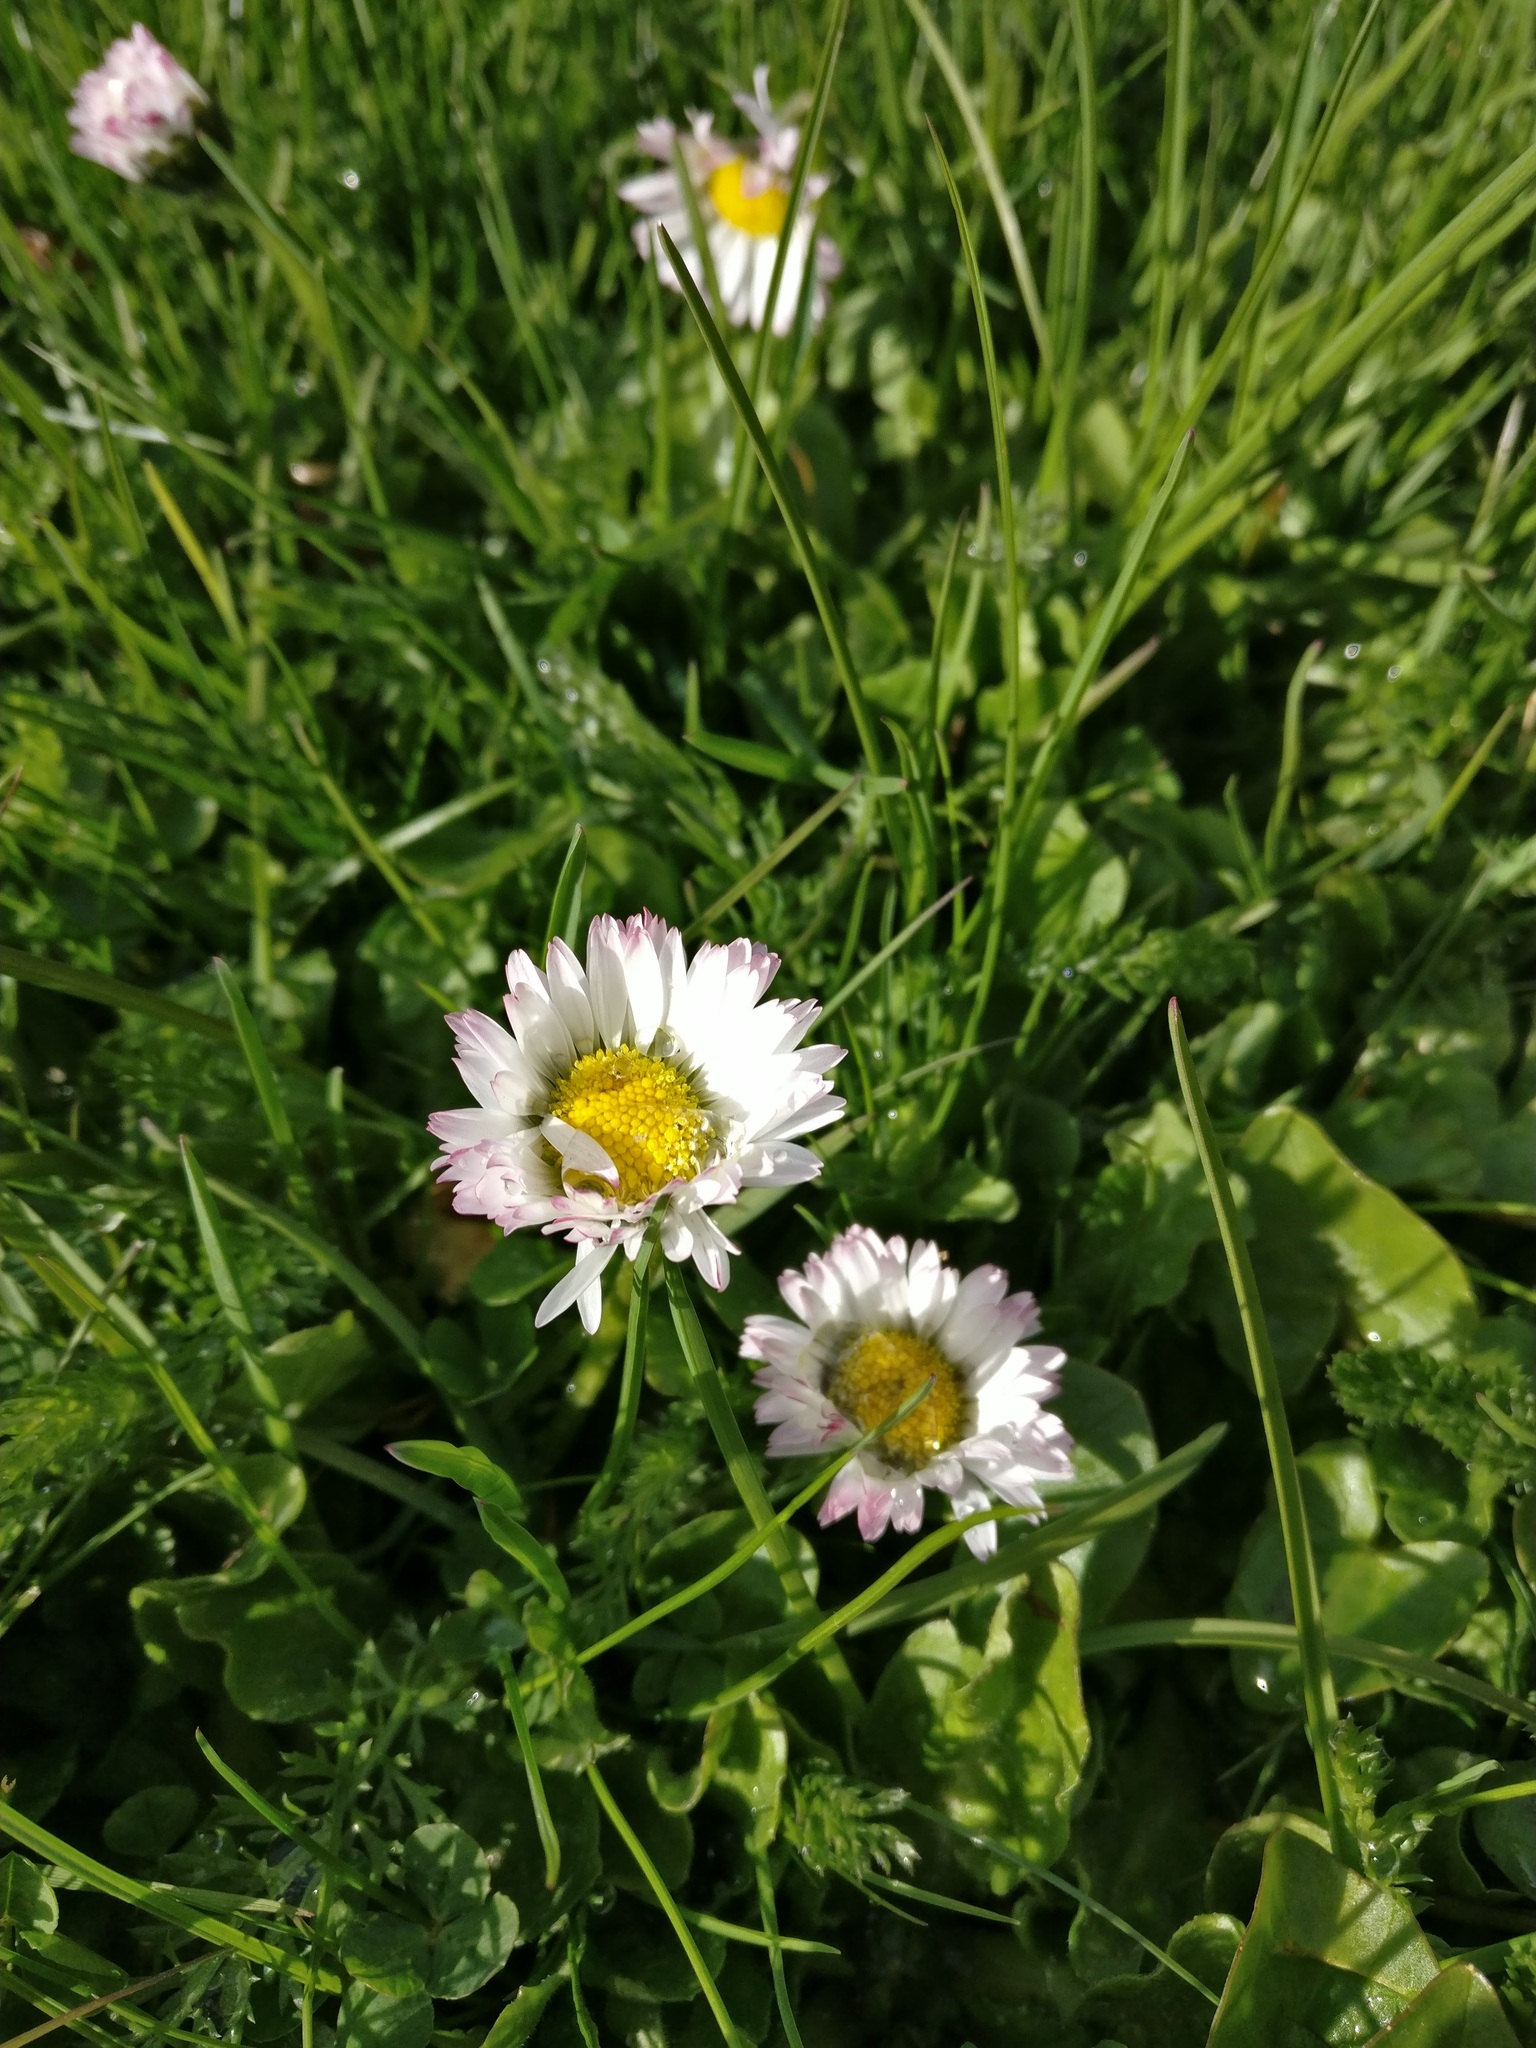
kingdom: Plantae
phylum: Tracheophyta
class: Magnoliopsida
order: Asterales
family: Asteraceae
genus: Bellis
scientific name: Bellis perennis
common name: Lawndaisy
